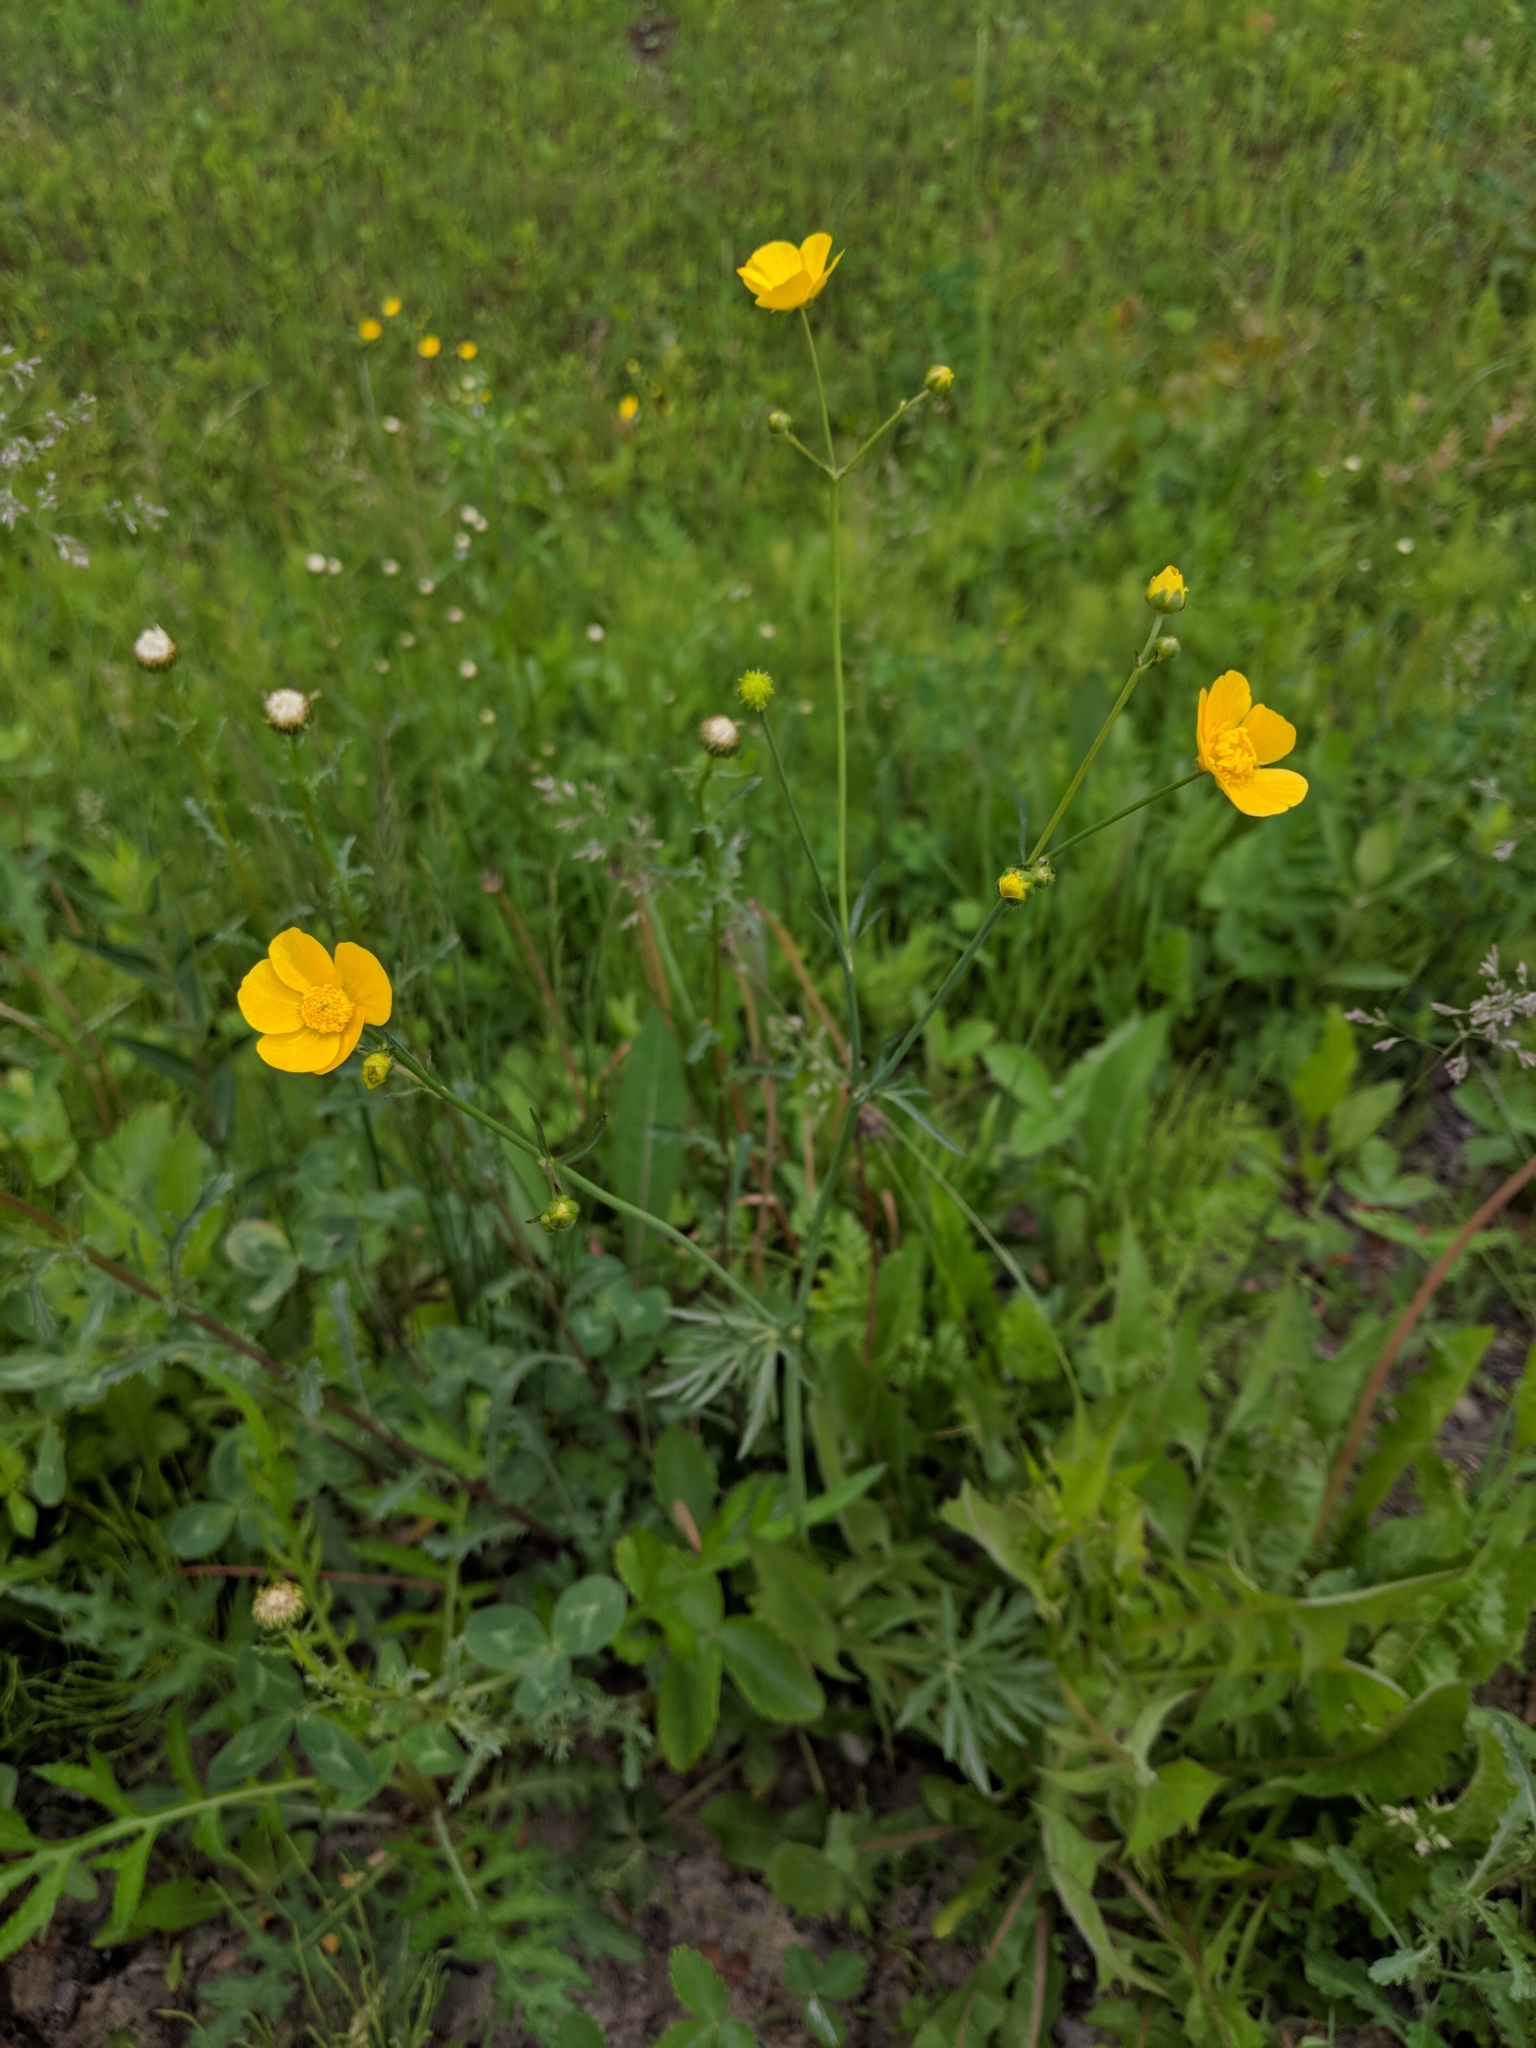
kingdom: Plantae
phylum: Tracheophyta
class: Magnoliopsida
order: Ranunculales
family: Ranunculaceae
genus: Ranunculus
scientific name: Ranunculus acris
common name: Meadow buttercup
